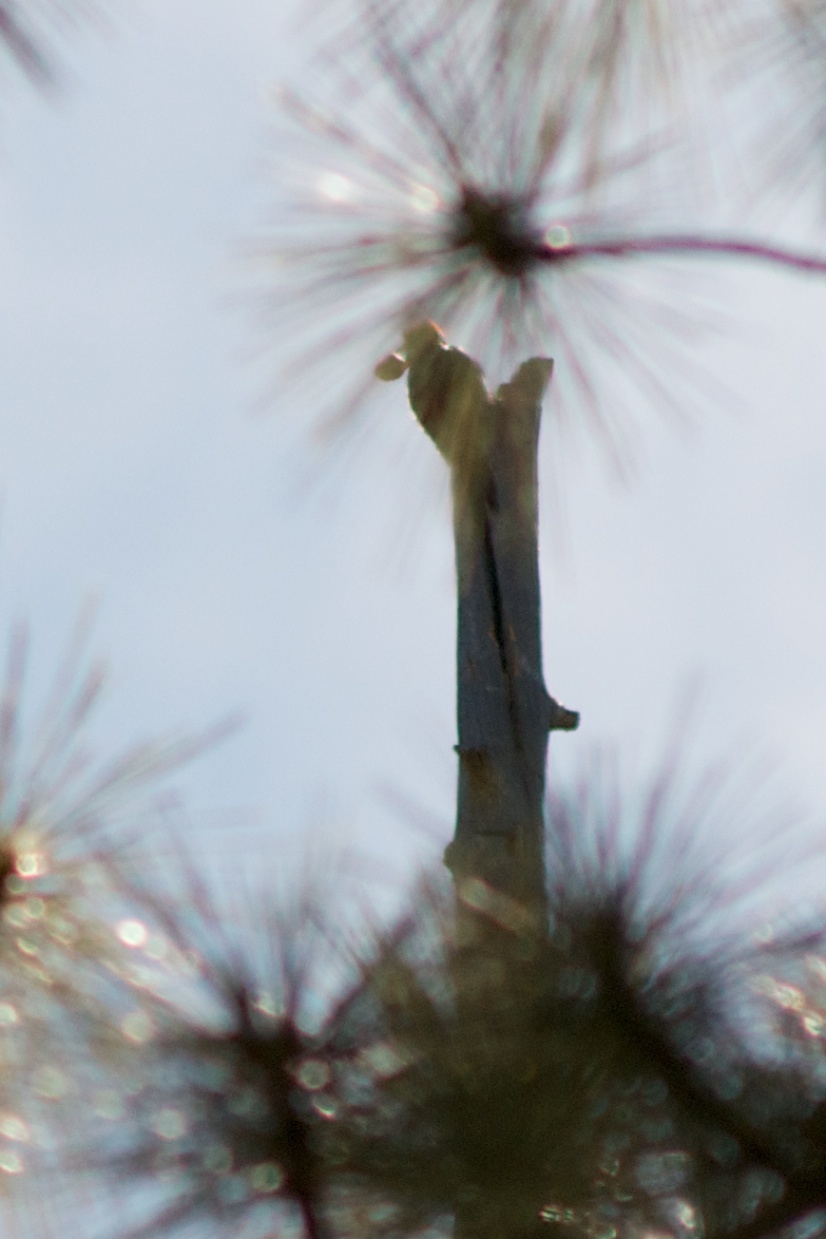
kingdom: Animalia
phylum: Chordata
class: Aves
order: Piciformes
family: Picidae
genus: Melanerpes
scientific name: Melanerpes formicivorus
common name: Acorn woodpecker
